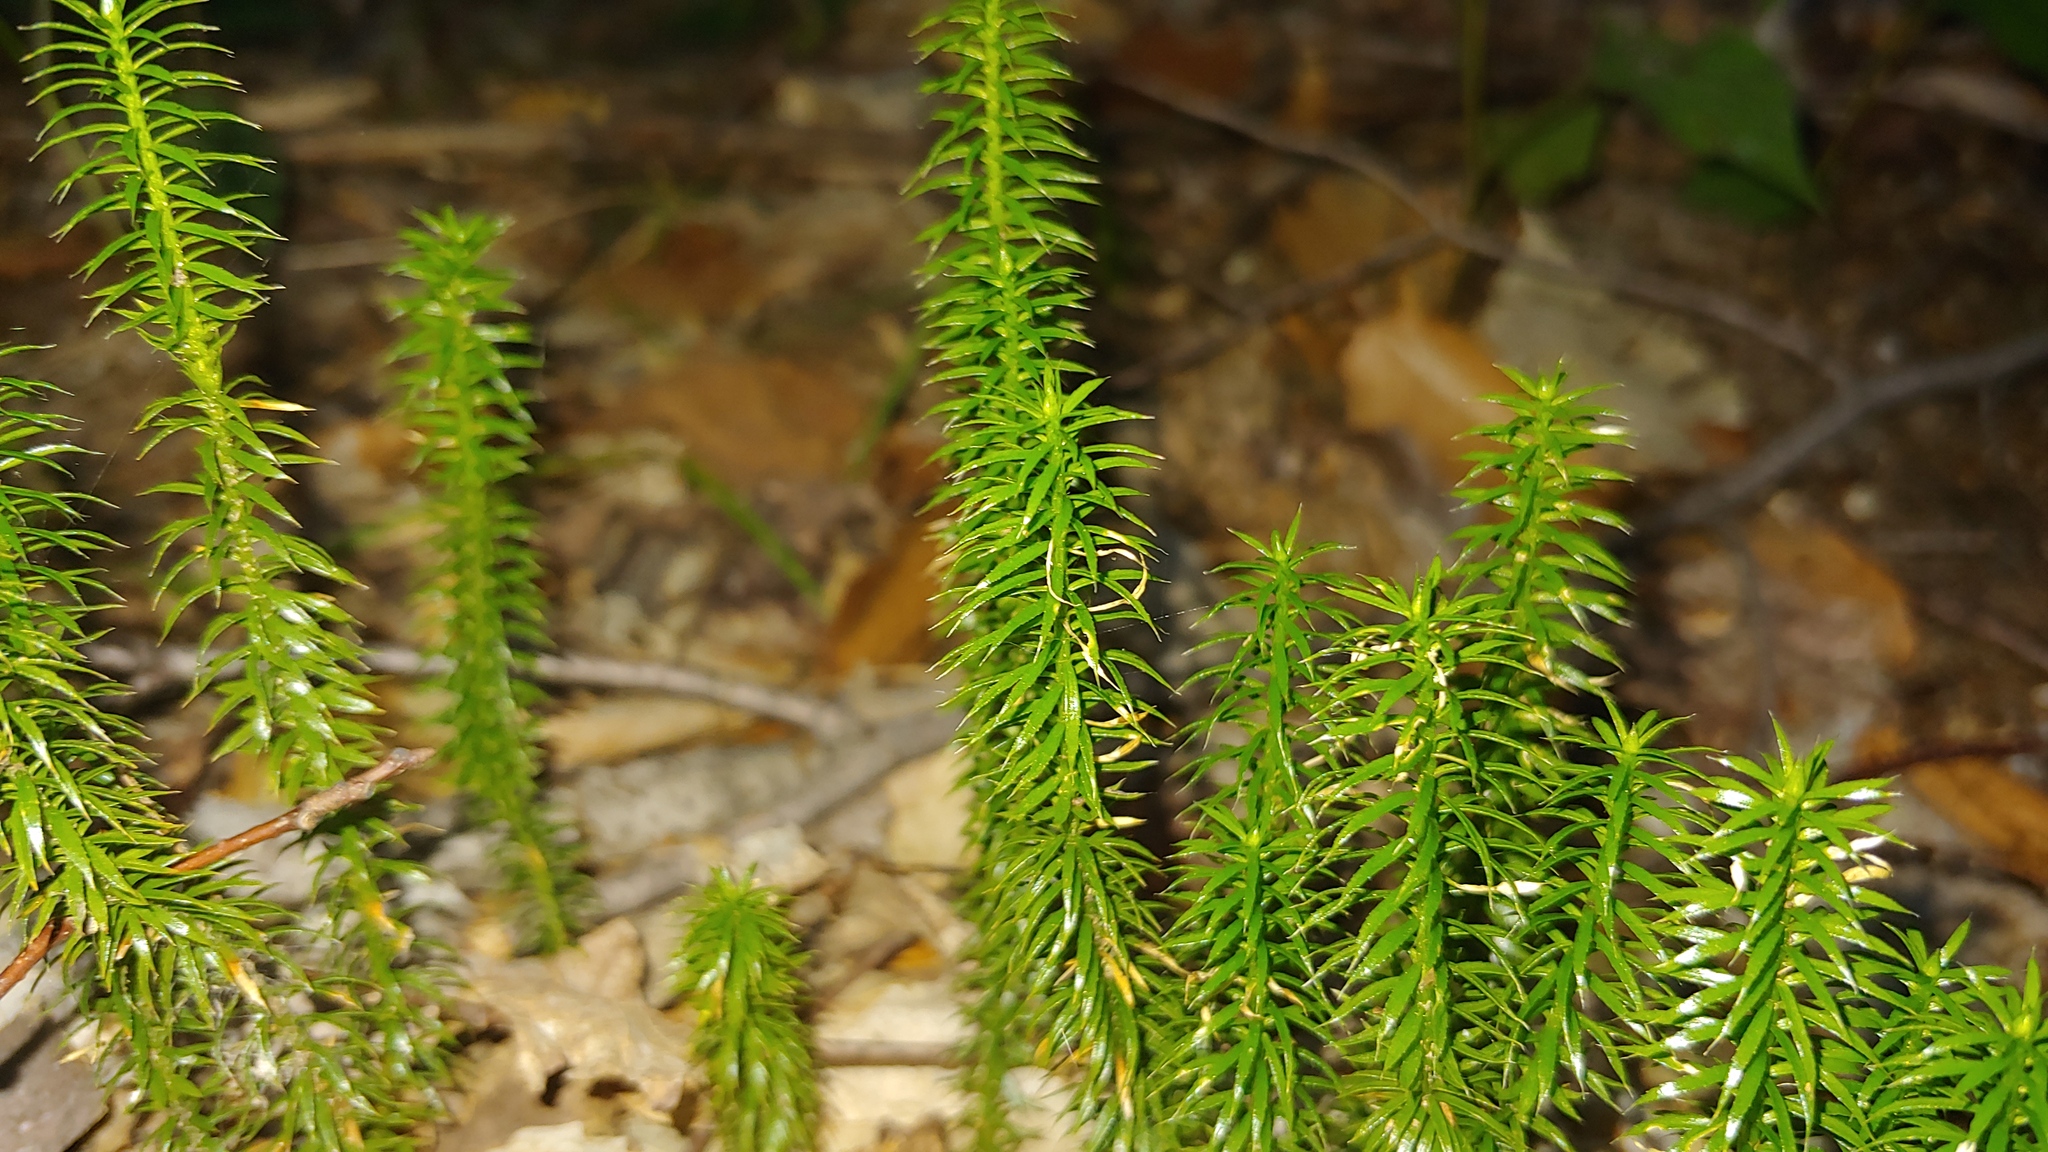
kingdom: Plantae
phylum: Tracheophyta
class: Lycopodiopsida
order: Lycopodiales
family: Lycopodiaceae
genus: Spinulum
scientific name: Spinulum annotinum
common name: Interrupted club-moss
